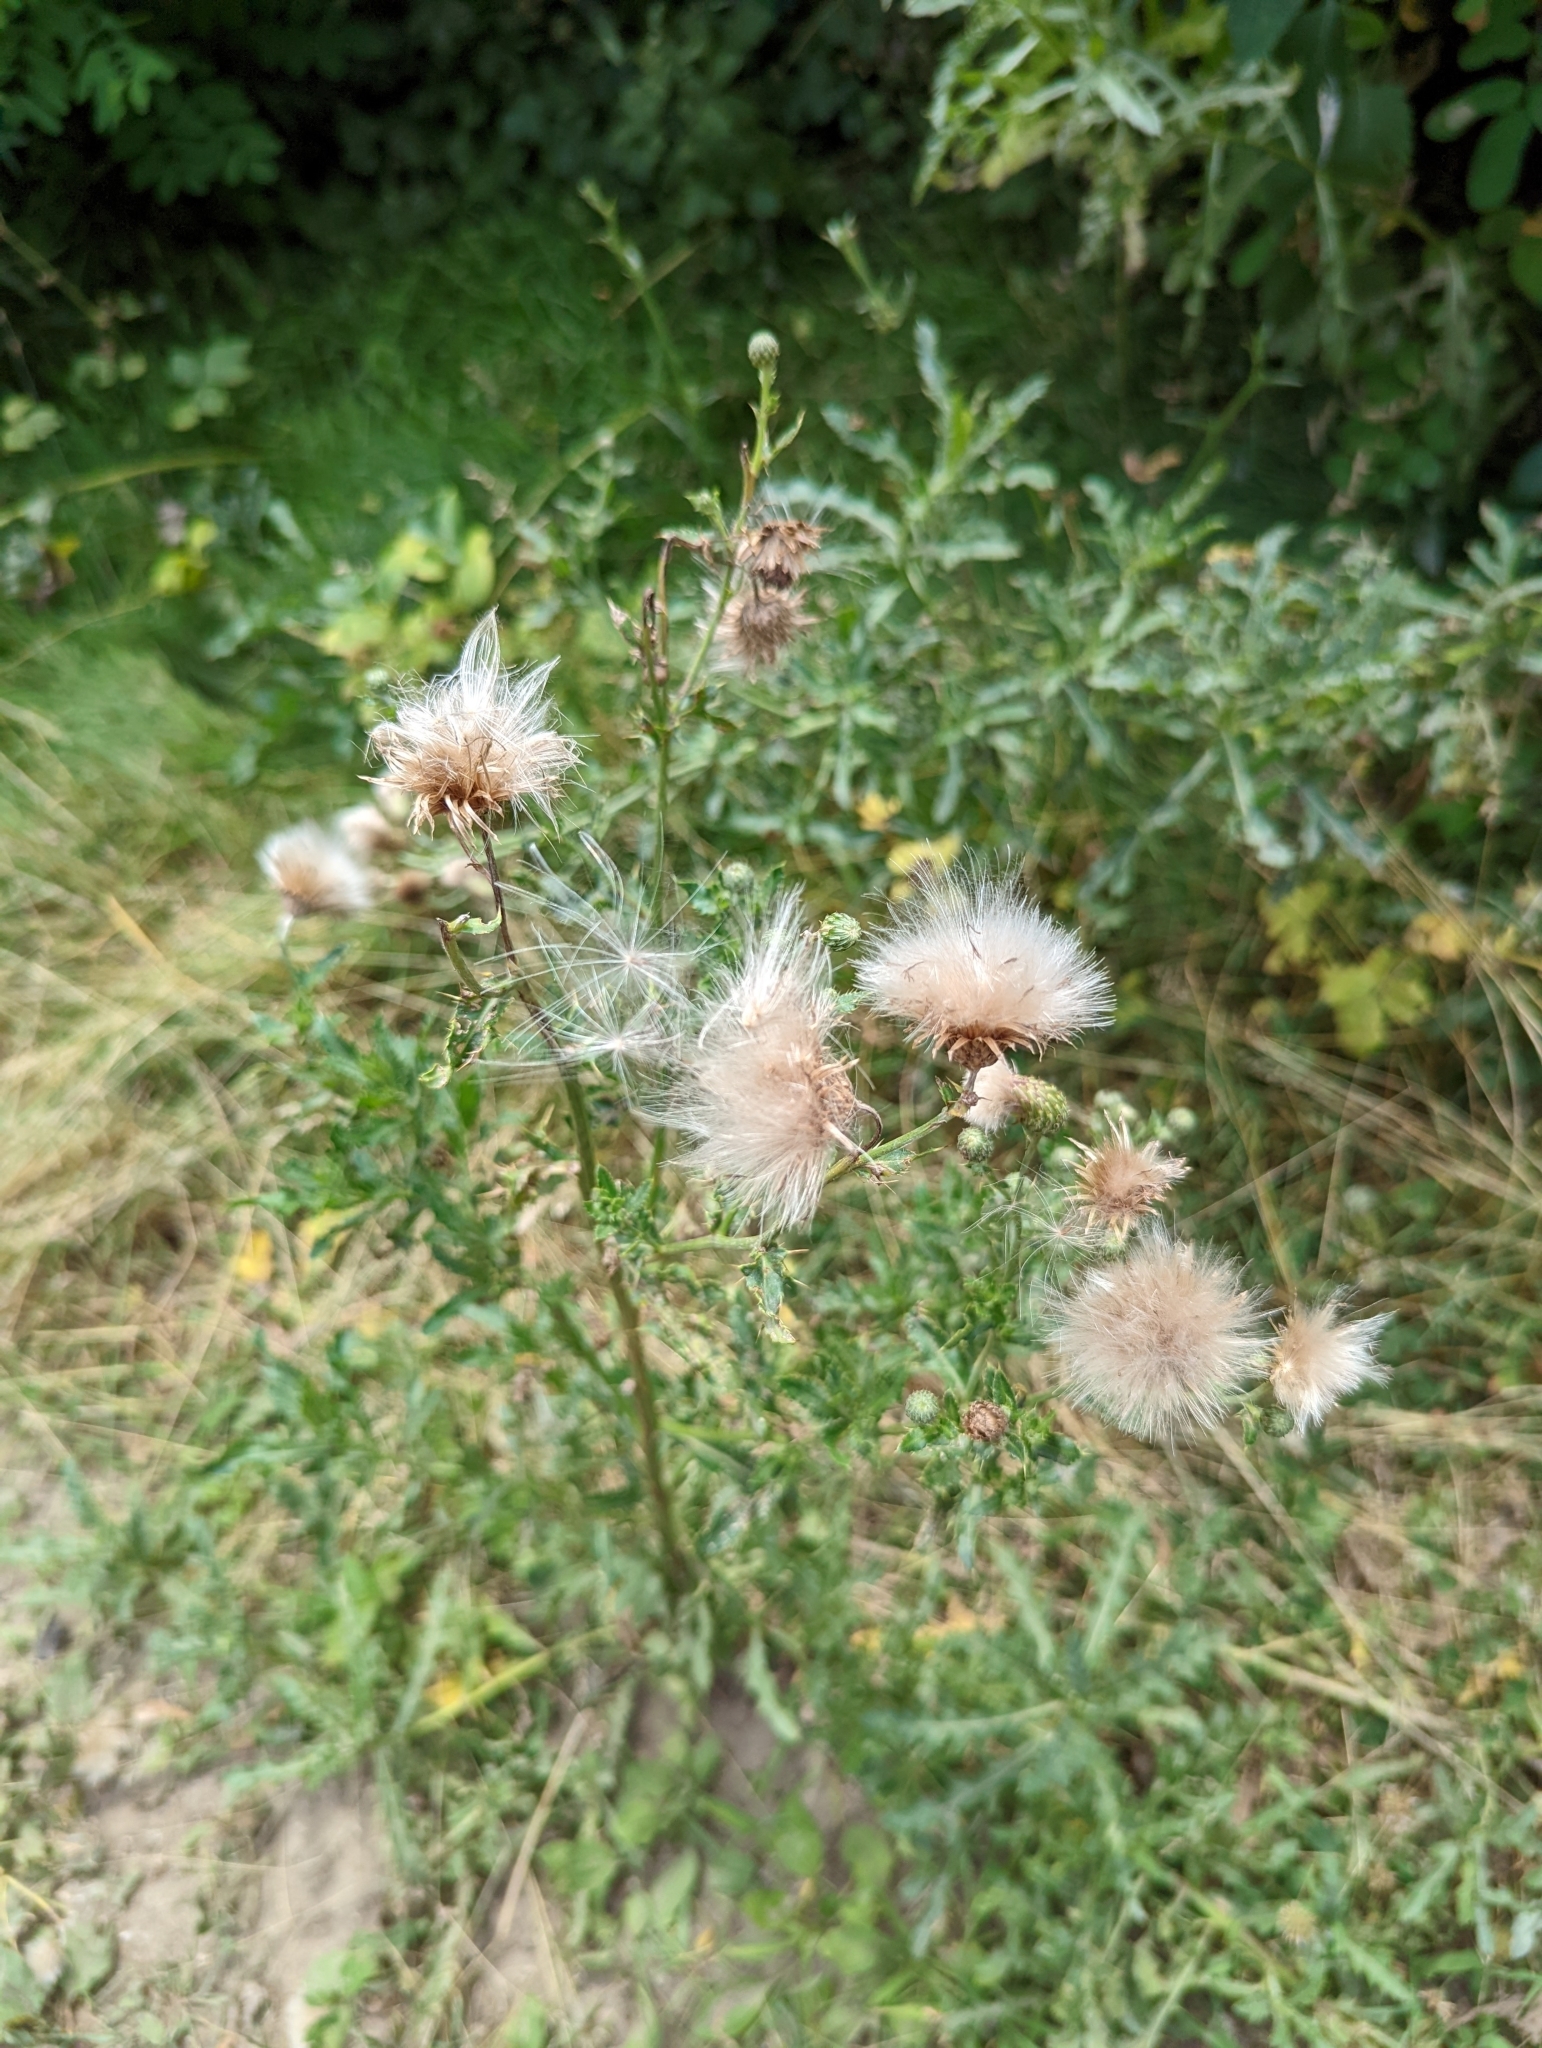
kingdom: Plantae
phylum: Tracheophyta
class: Magnoliopsida
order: Asterales
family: Asteraceae
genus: Cirsium
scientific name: Cirsium arvense
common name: Creeping thistle
